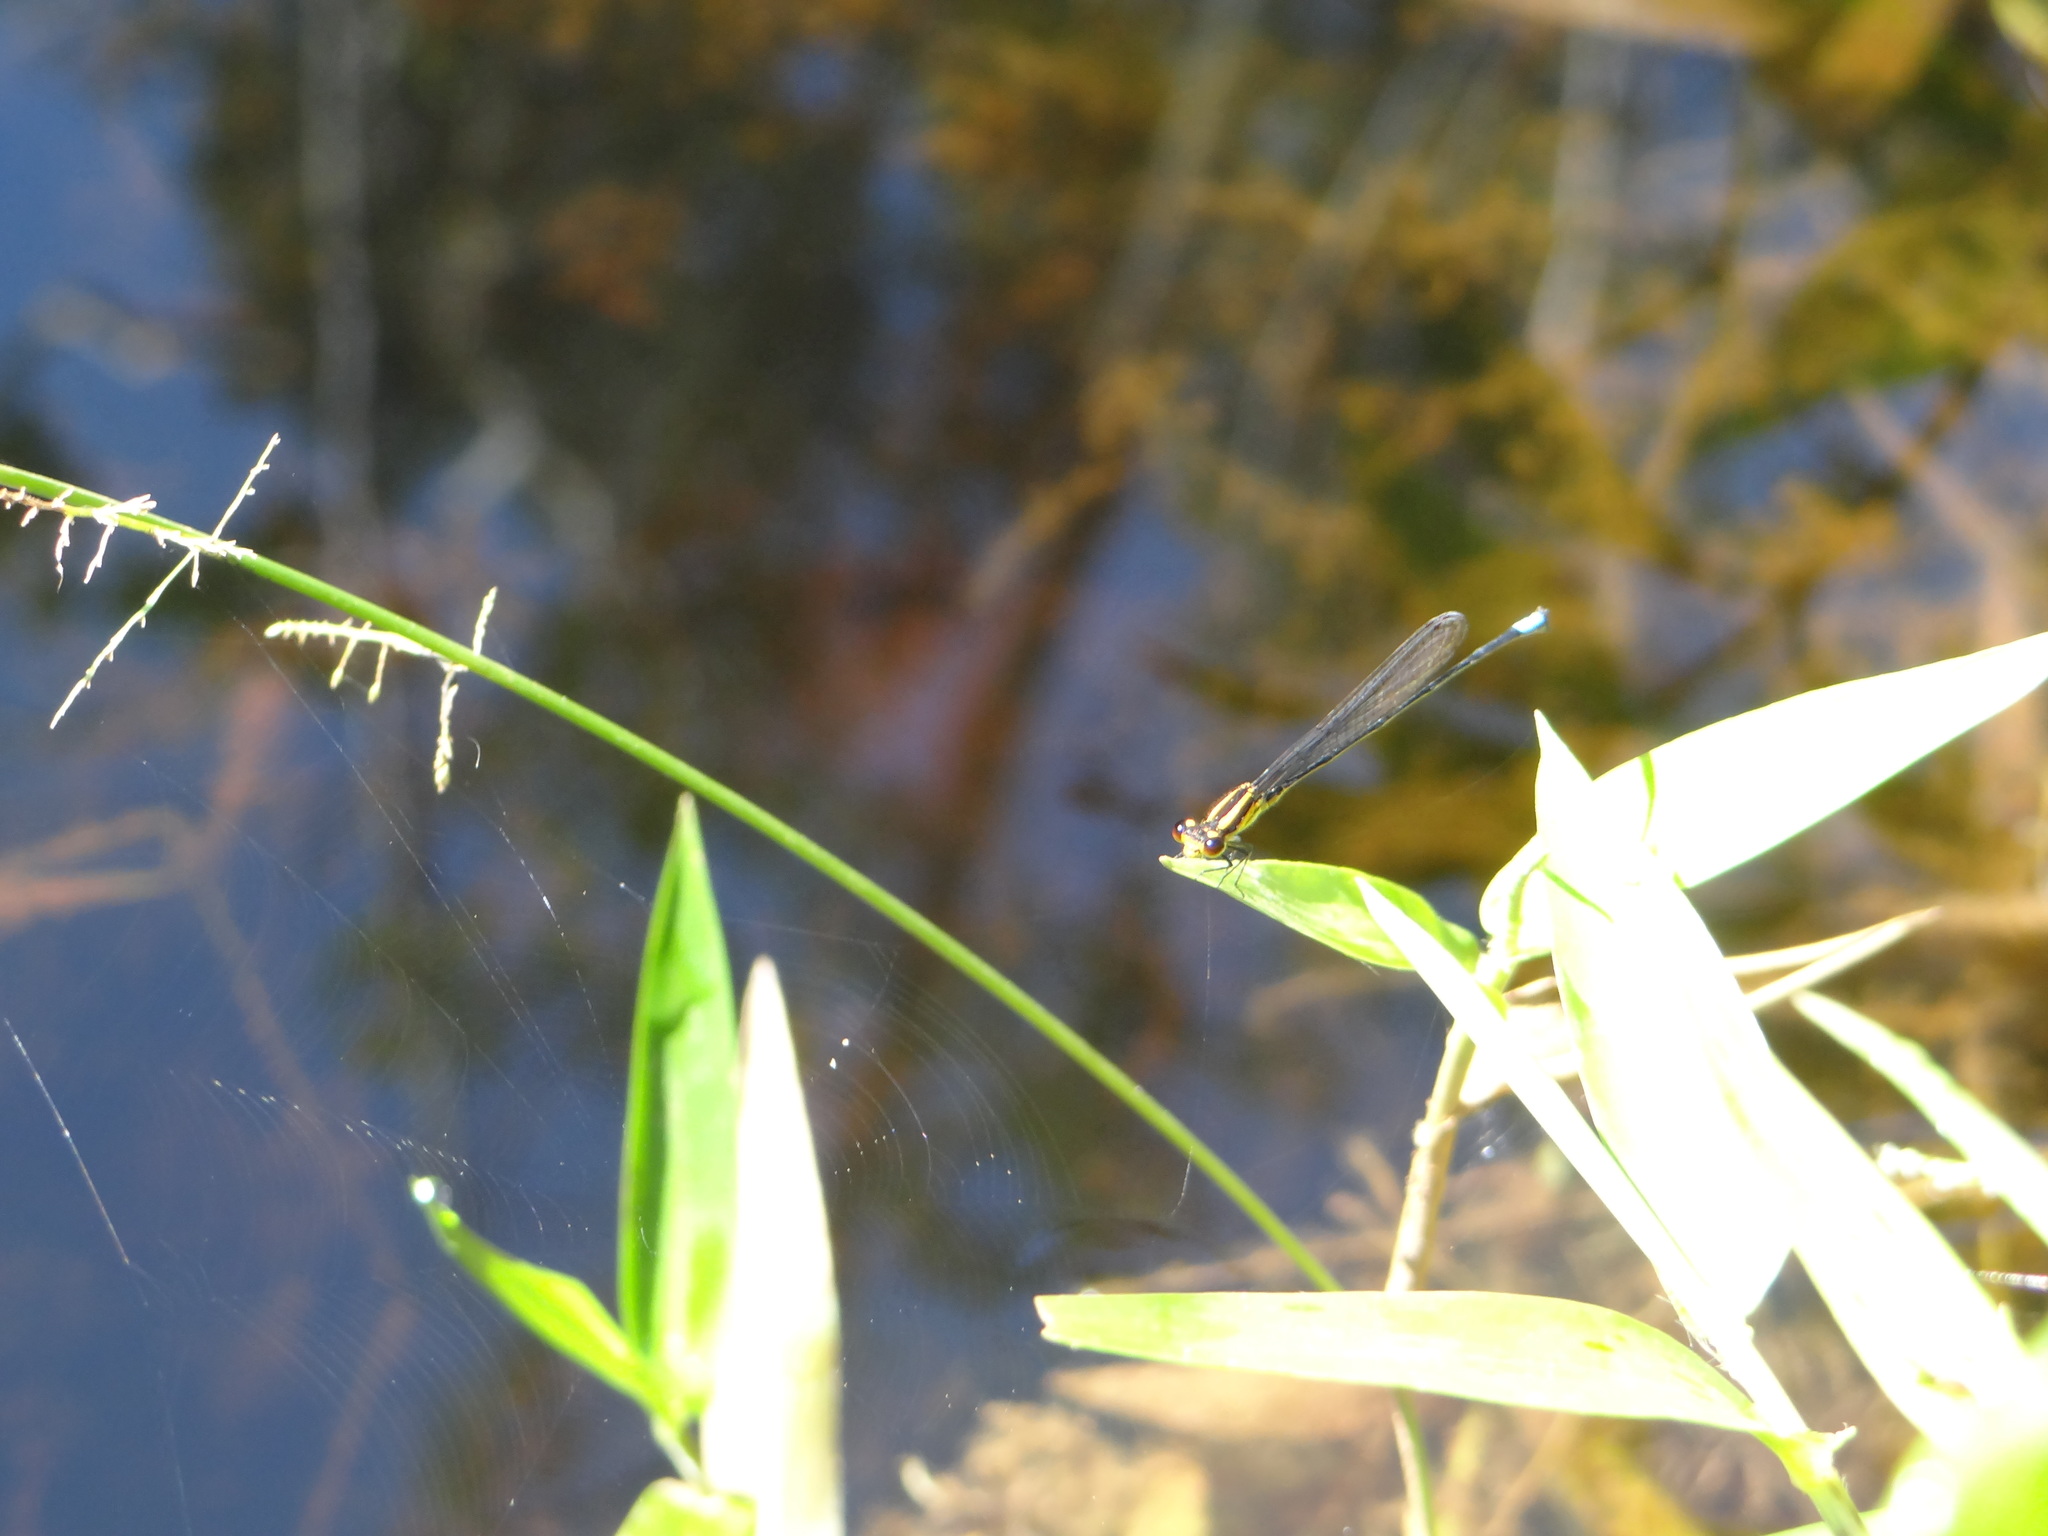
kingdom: Animalia
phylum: Arthropoda
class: Insecta
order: Odonata
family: Coenagrionidae
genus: Acanthagrion
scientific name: Acanthagrion apicale
